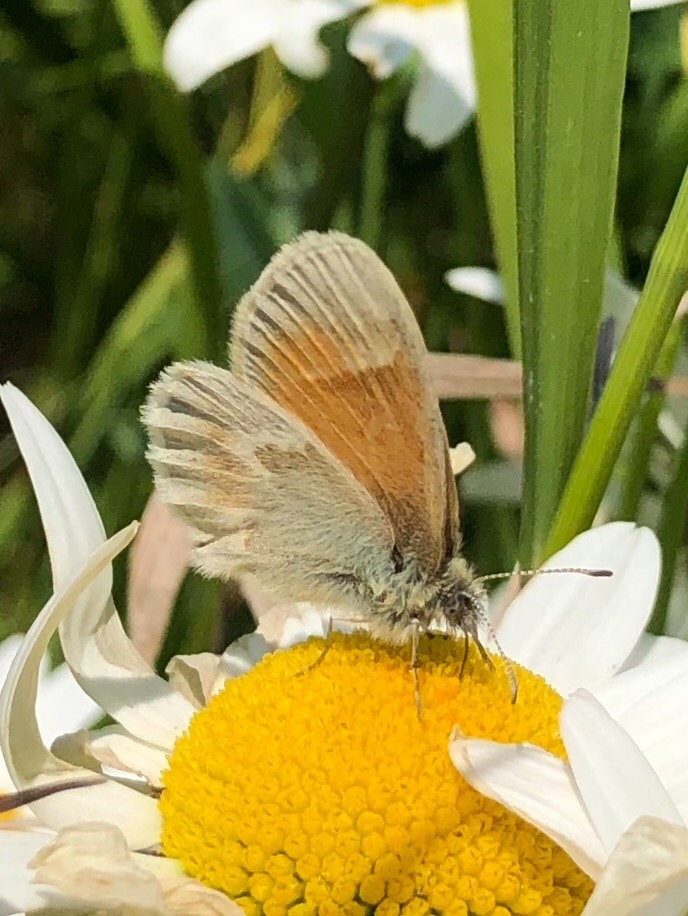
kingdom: Animalia
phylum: Arthropoda
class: Insecta
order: Lepidoptera
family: Nymphalidae
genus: Coenonympha
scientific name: Coenonympha tullia
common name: Large heath
